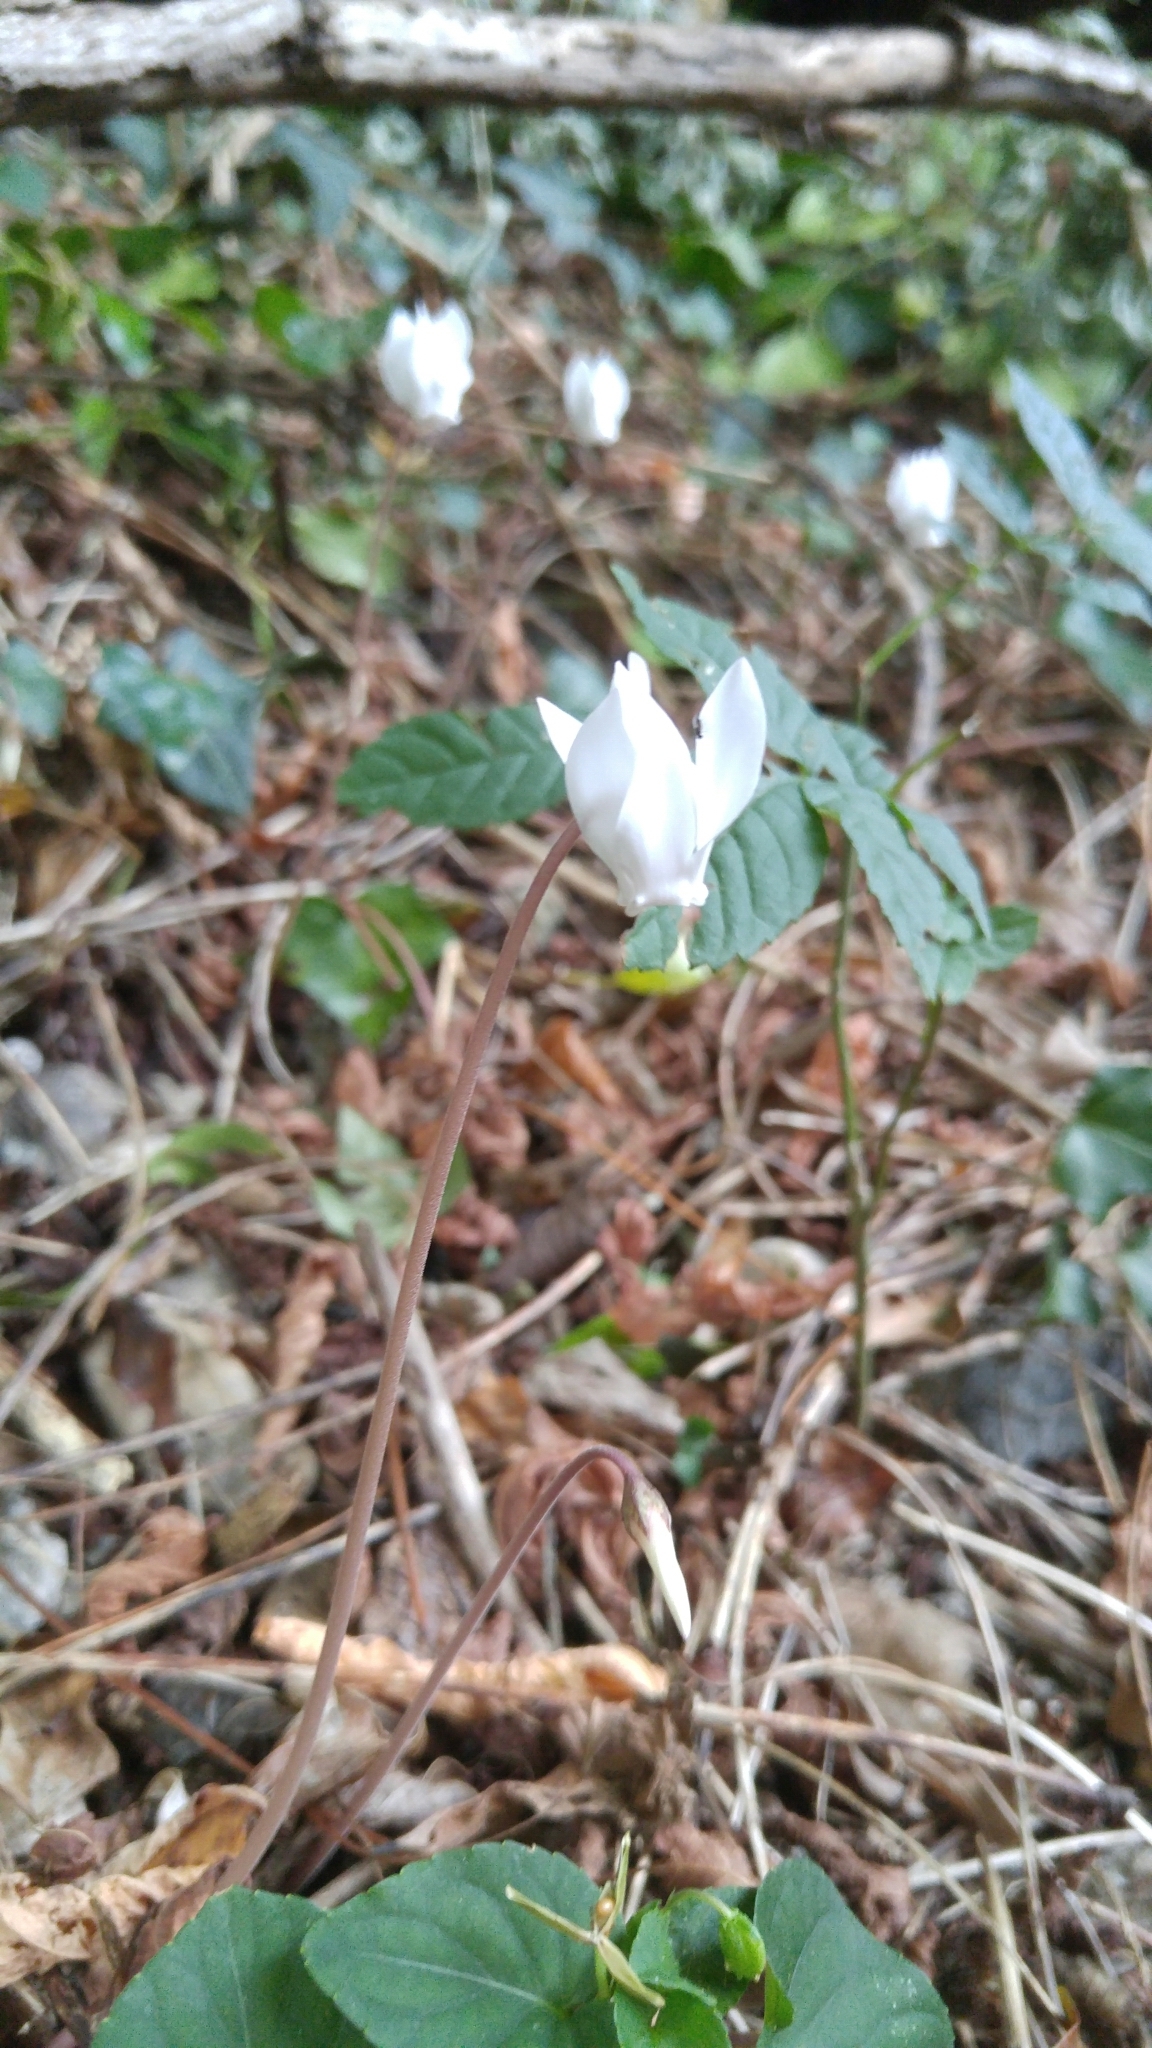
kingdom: Plantae
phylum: Tracheophyta
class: Magnoliopsida
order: Ericales
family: Primulaceae
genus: Cyclamen
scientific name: Cyclamen hederifolium
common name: Sowbread
